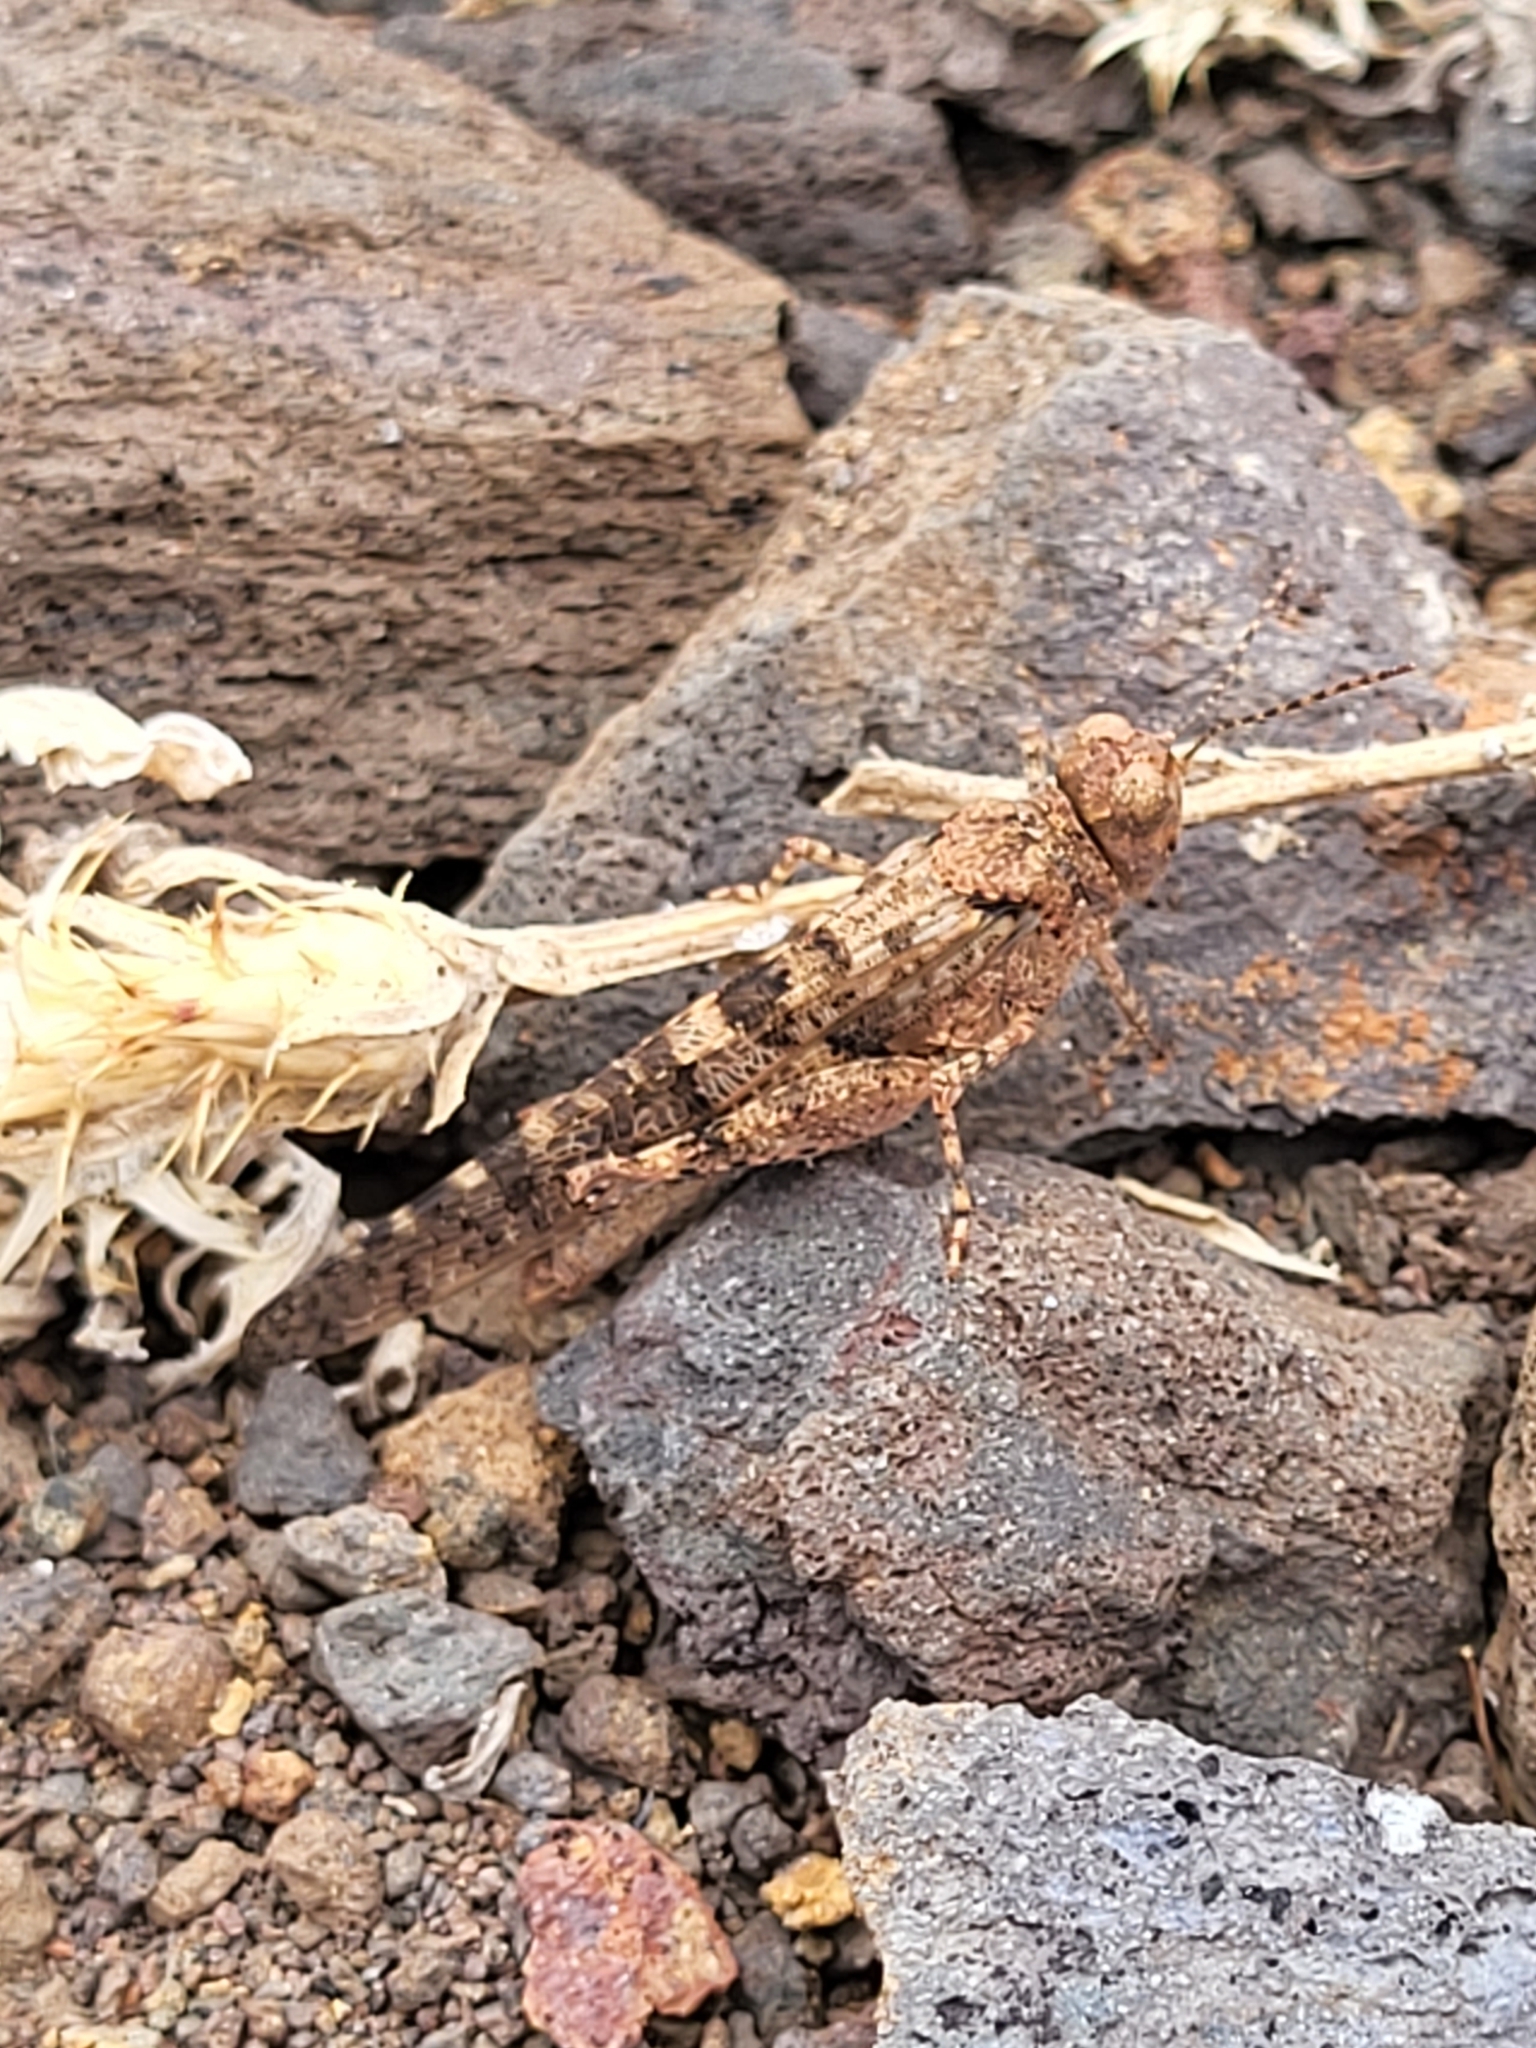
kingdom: Animalia
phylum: Arthropoda
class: Insecta
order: Orthoptera
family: Acrididae
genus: Sphingonotus
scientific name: Sphingonotus rubescens
